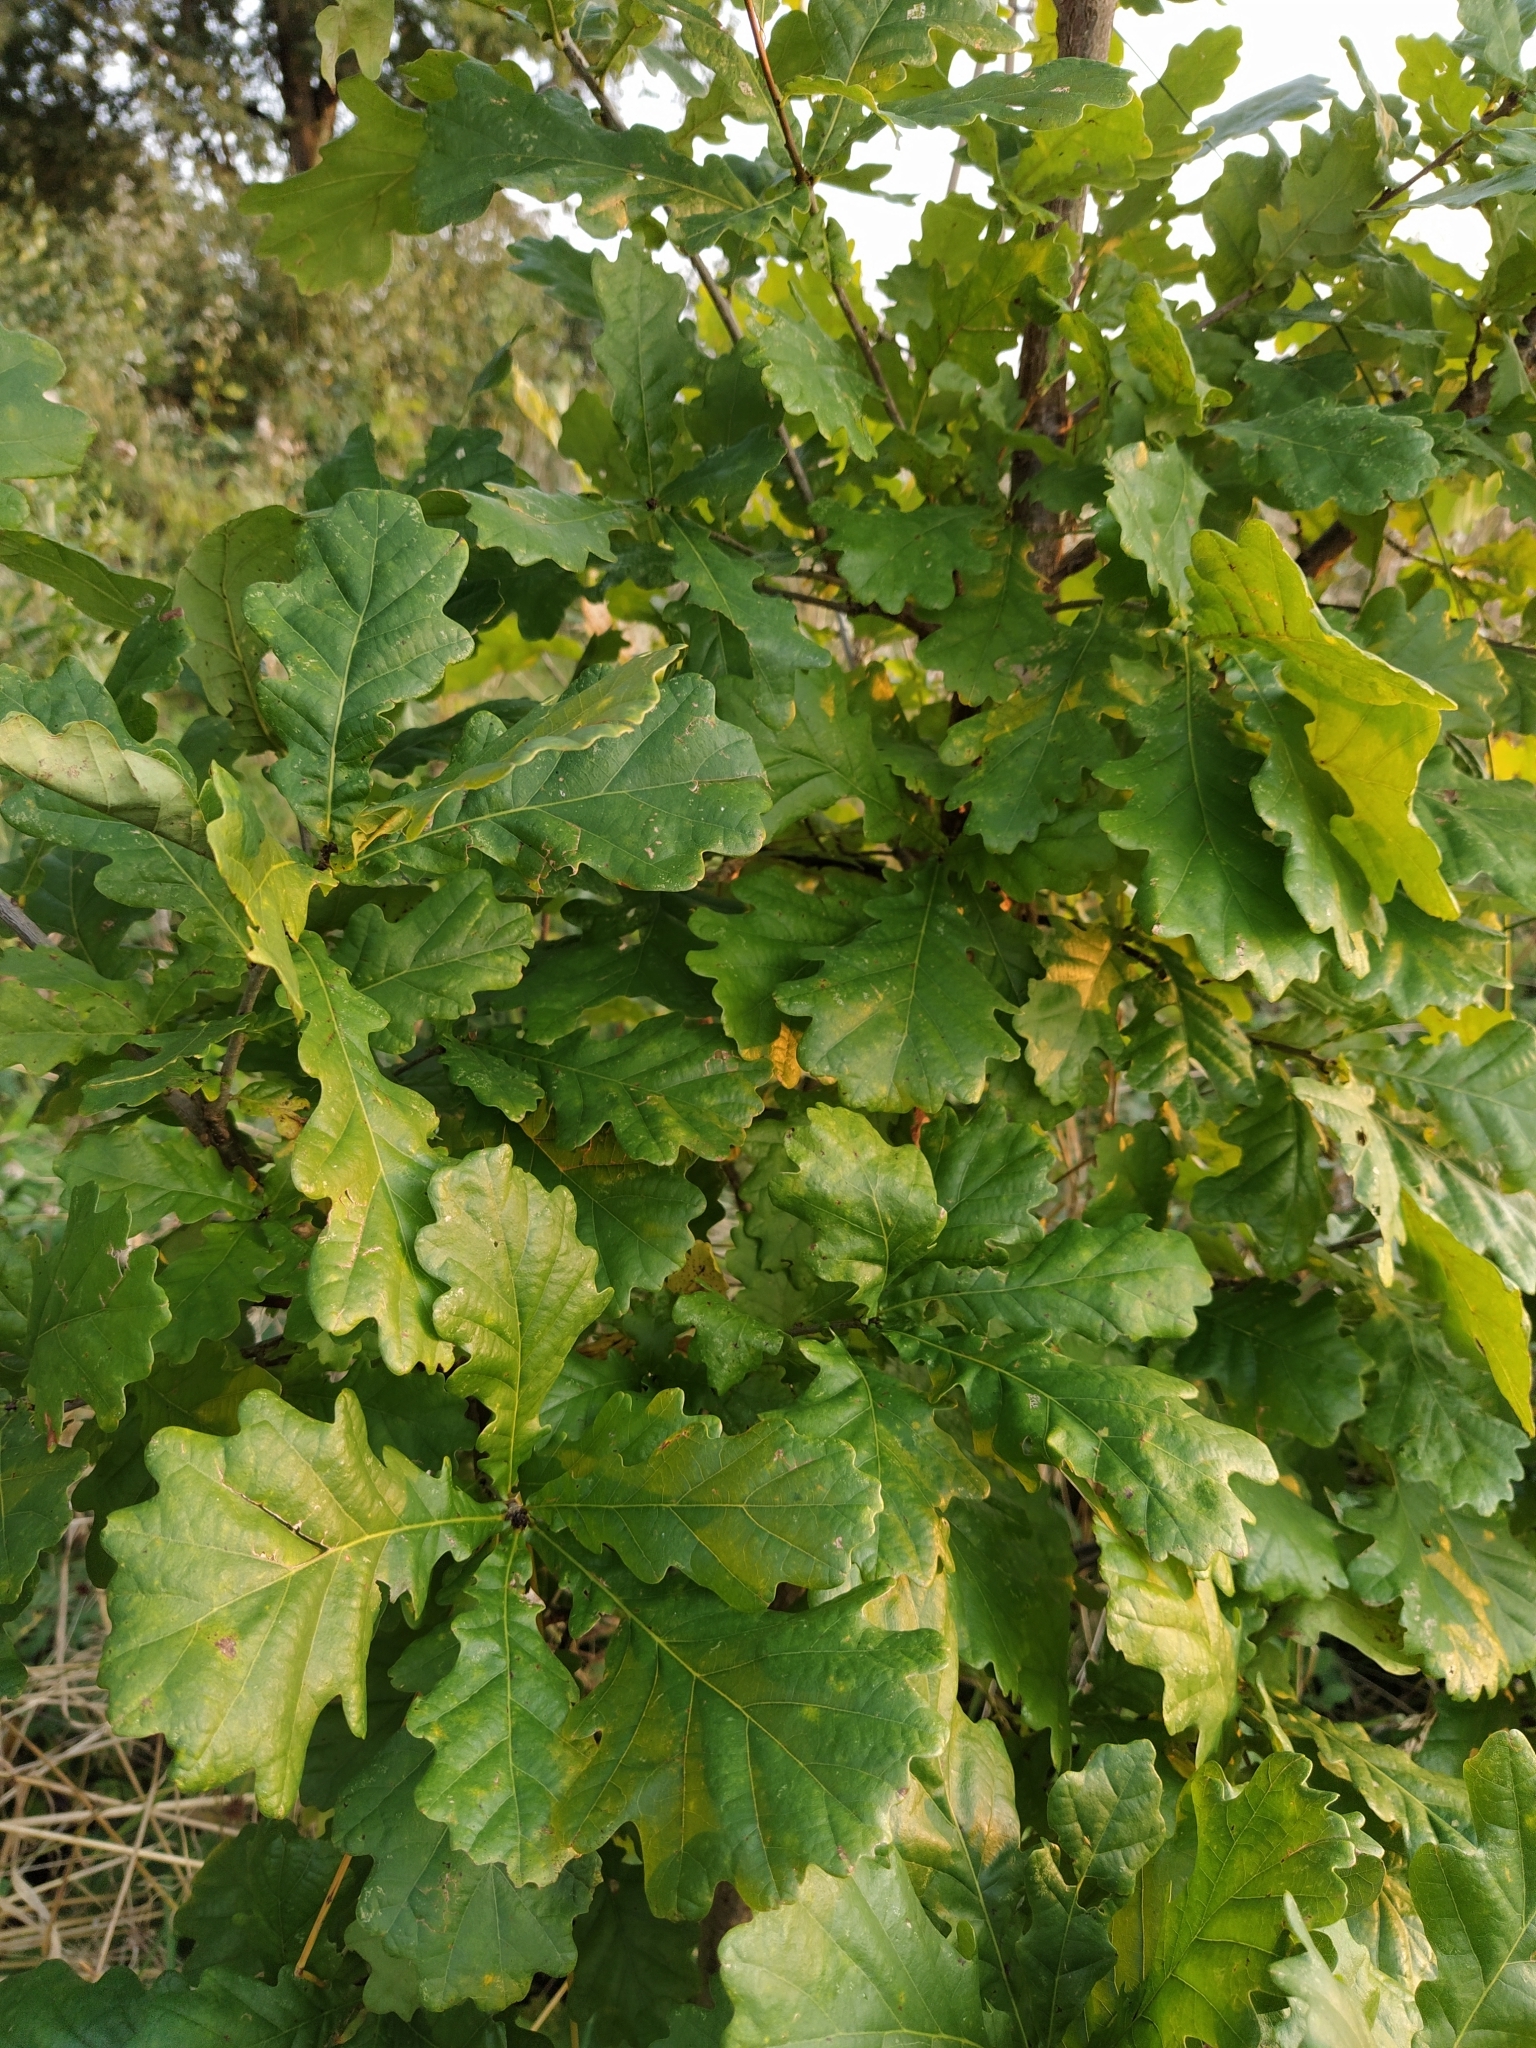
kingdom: Plantae
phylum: Tracheophyta
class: Magnoliopsida
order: Fagales
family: Fagaceae
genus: Quercus
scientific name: Quercus robur
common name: Pedunculate oak
